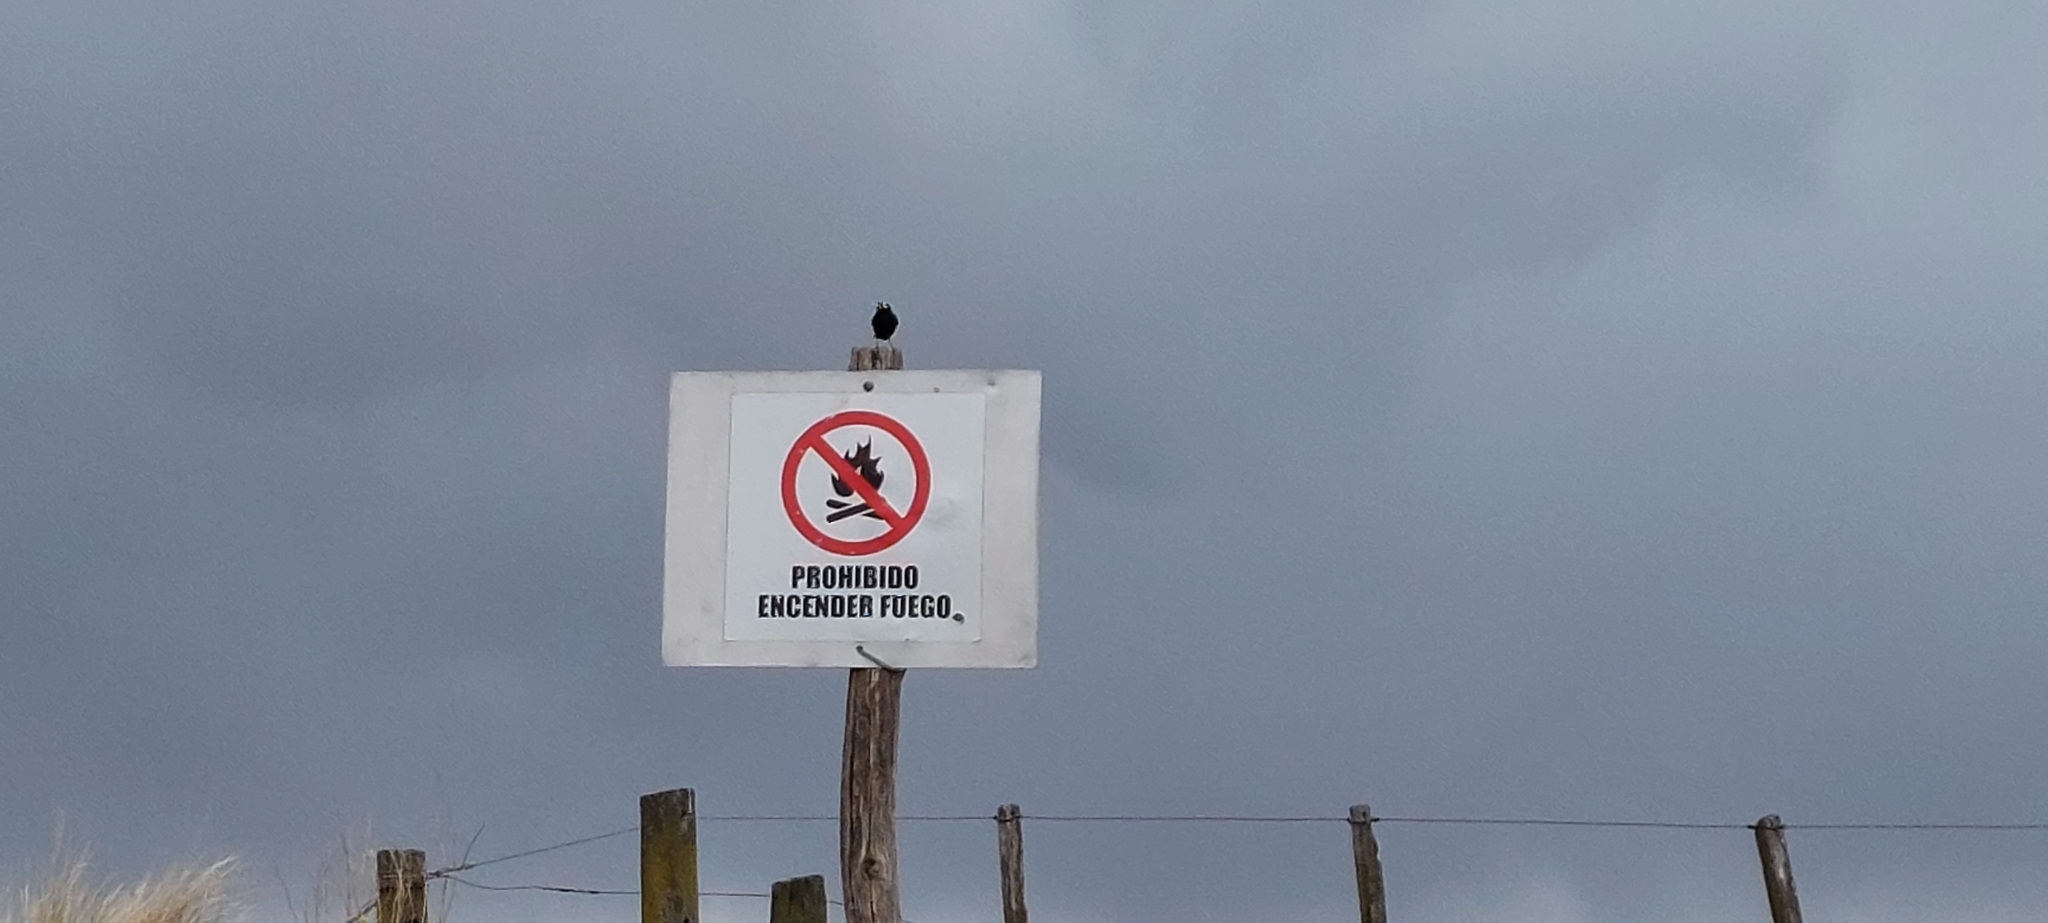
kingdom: Animalia
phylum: Chordata
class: Aves
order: Passeriformes
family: Tyrannidae
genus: Hymenops
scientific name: Hymenops perspicillatus
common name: Spectacled tyrant
